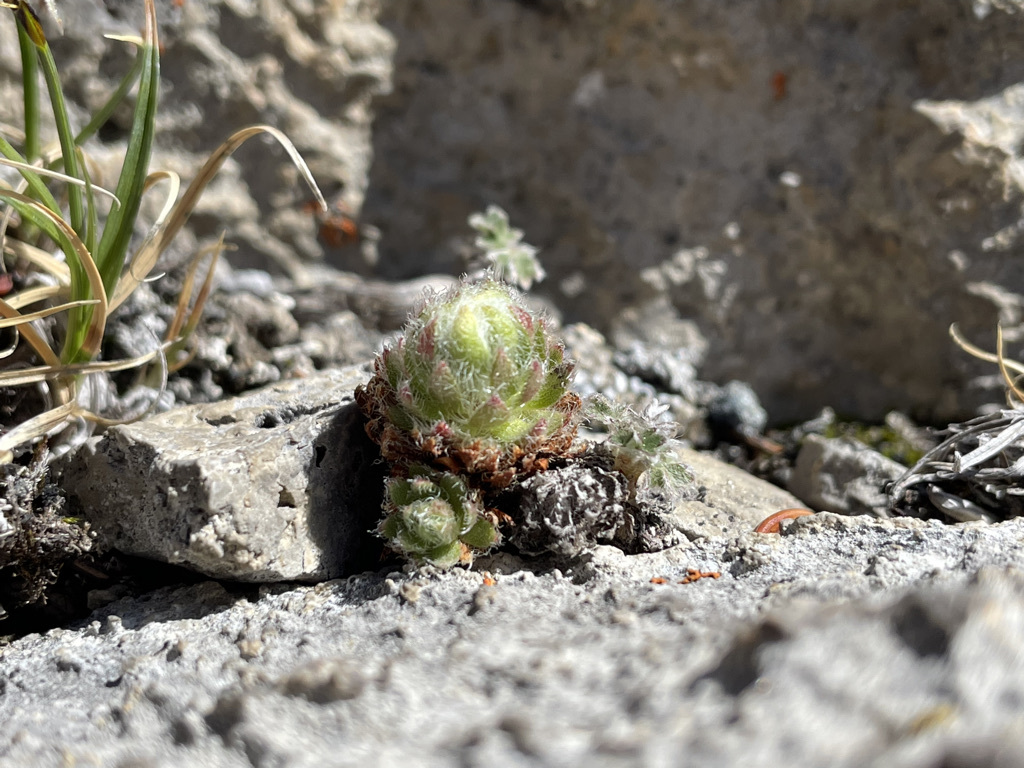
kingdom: Plantae
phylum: Tracheophyta
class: Magnoliopsida
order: Ericales
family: Primulaceae
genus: Androsace
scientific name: Androsace chamaejasme
